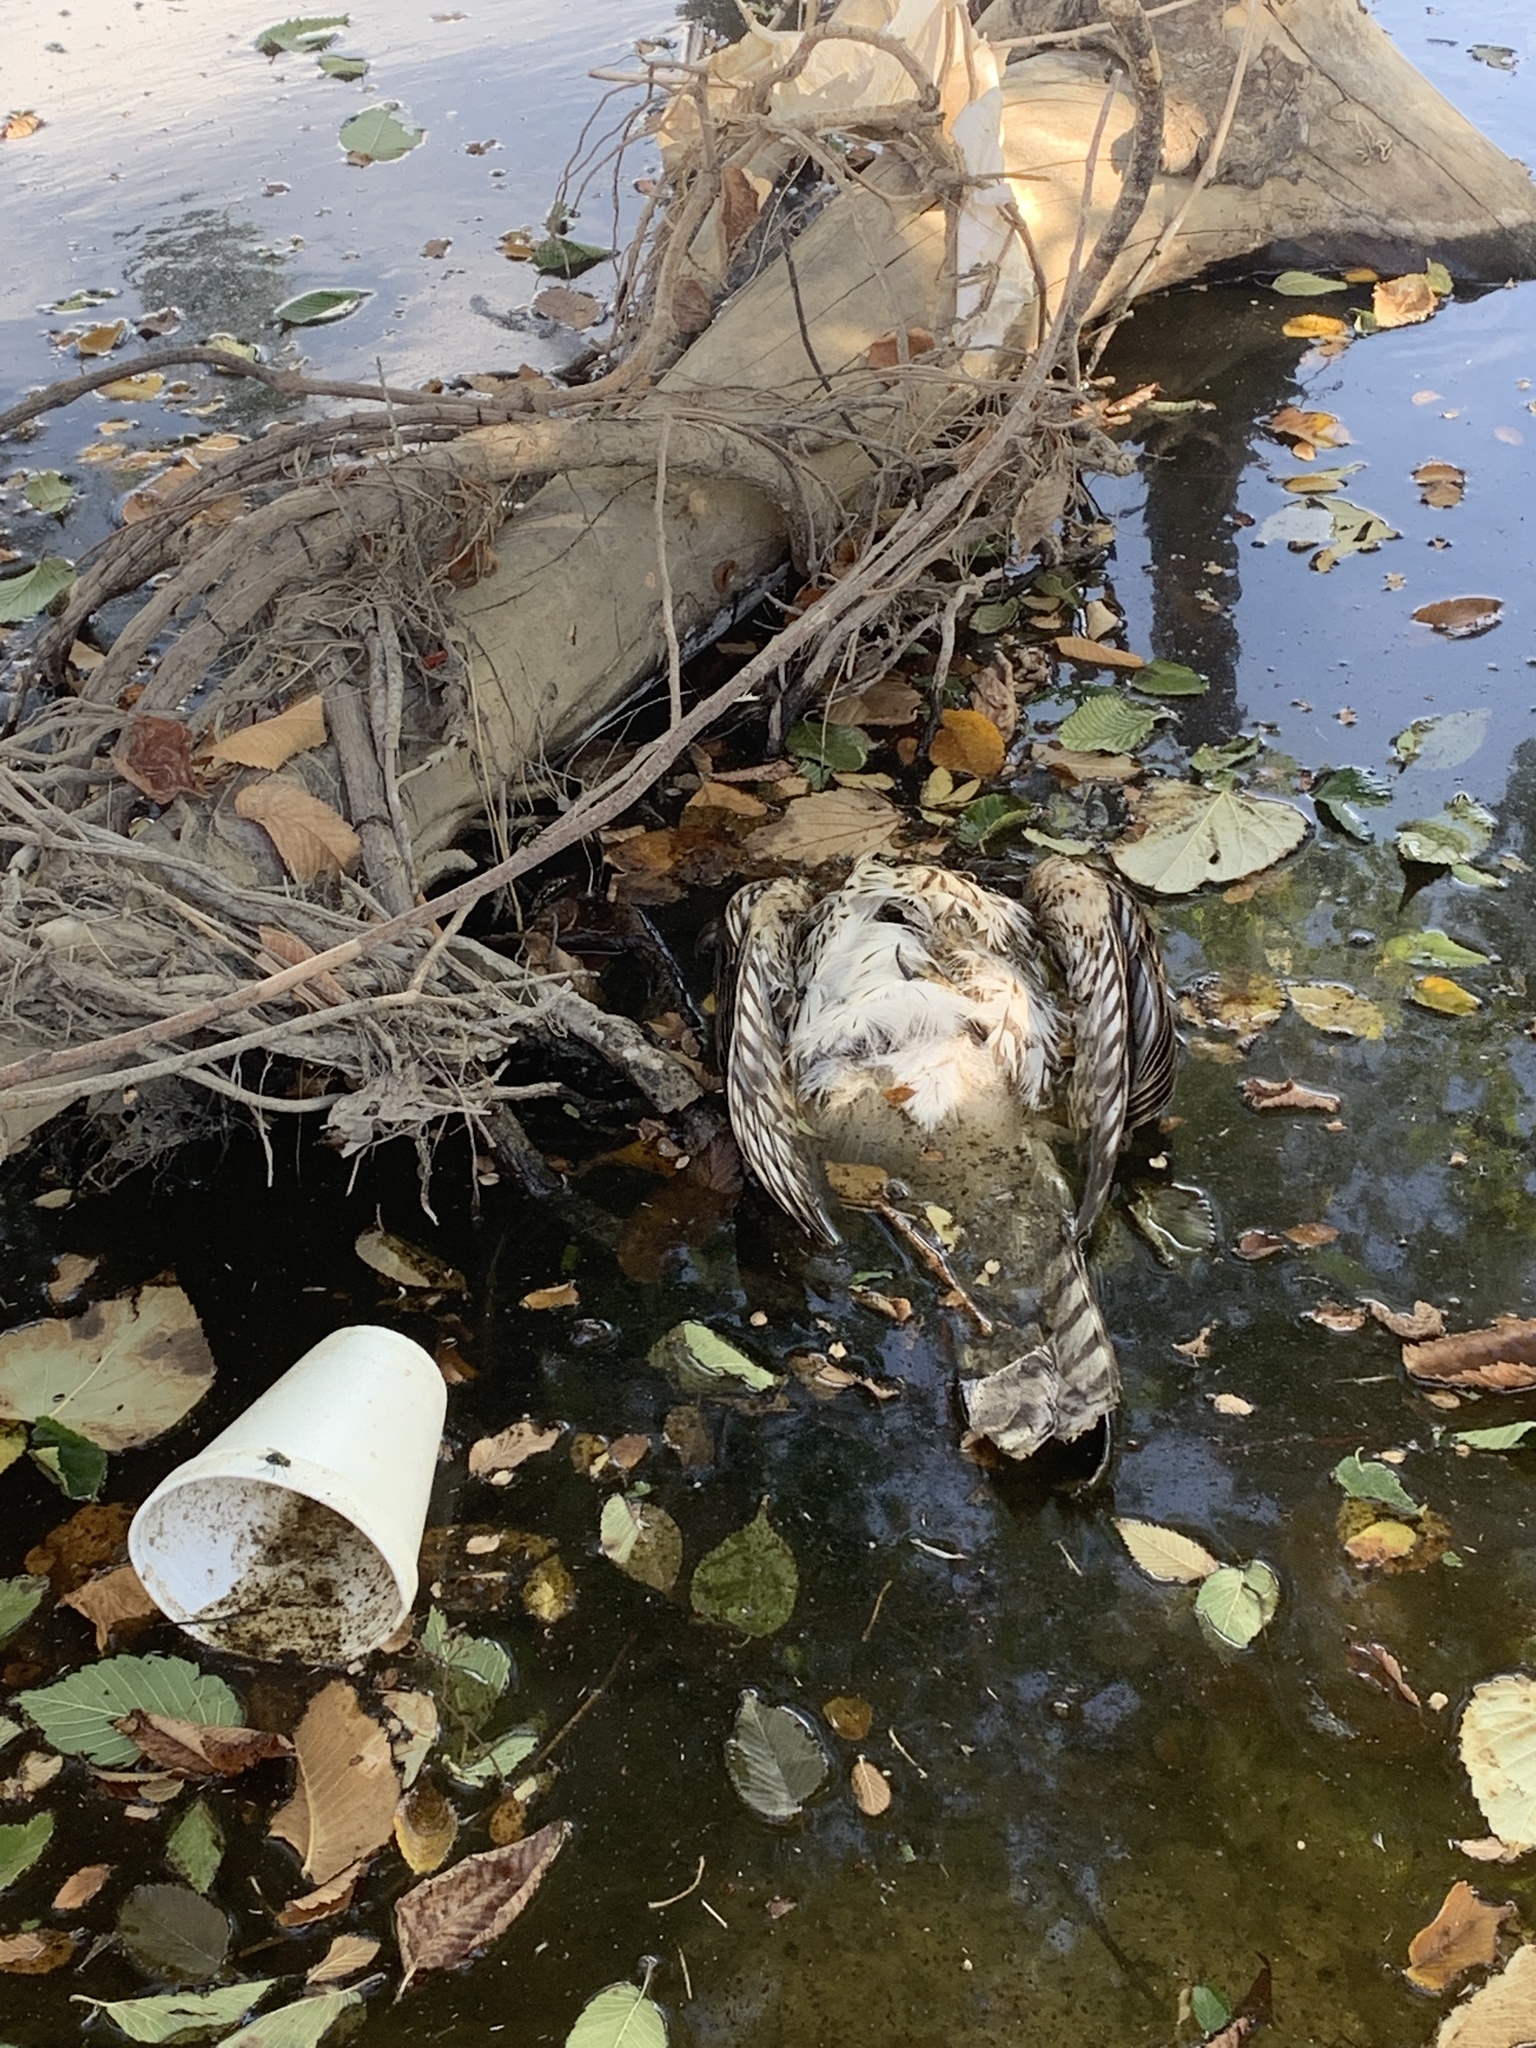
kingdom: Animalia
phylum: Chordata
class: Aves
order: Accipitriformes
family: Accipitridae
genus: Accipiter
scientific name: Accipiter cooperii
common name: Cooper's hawk
